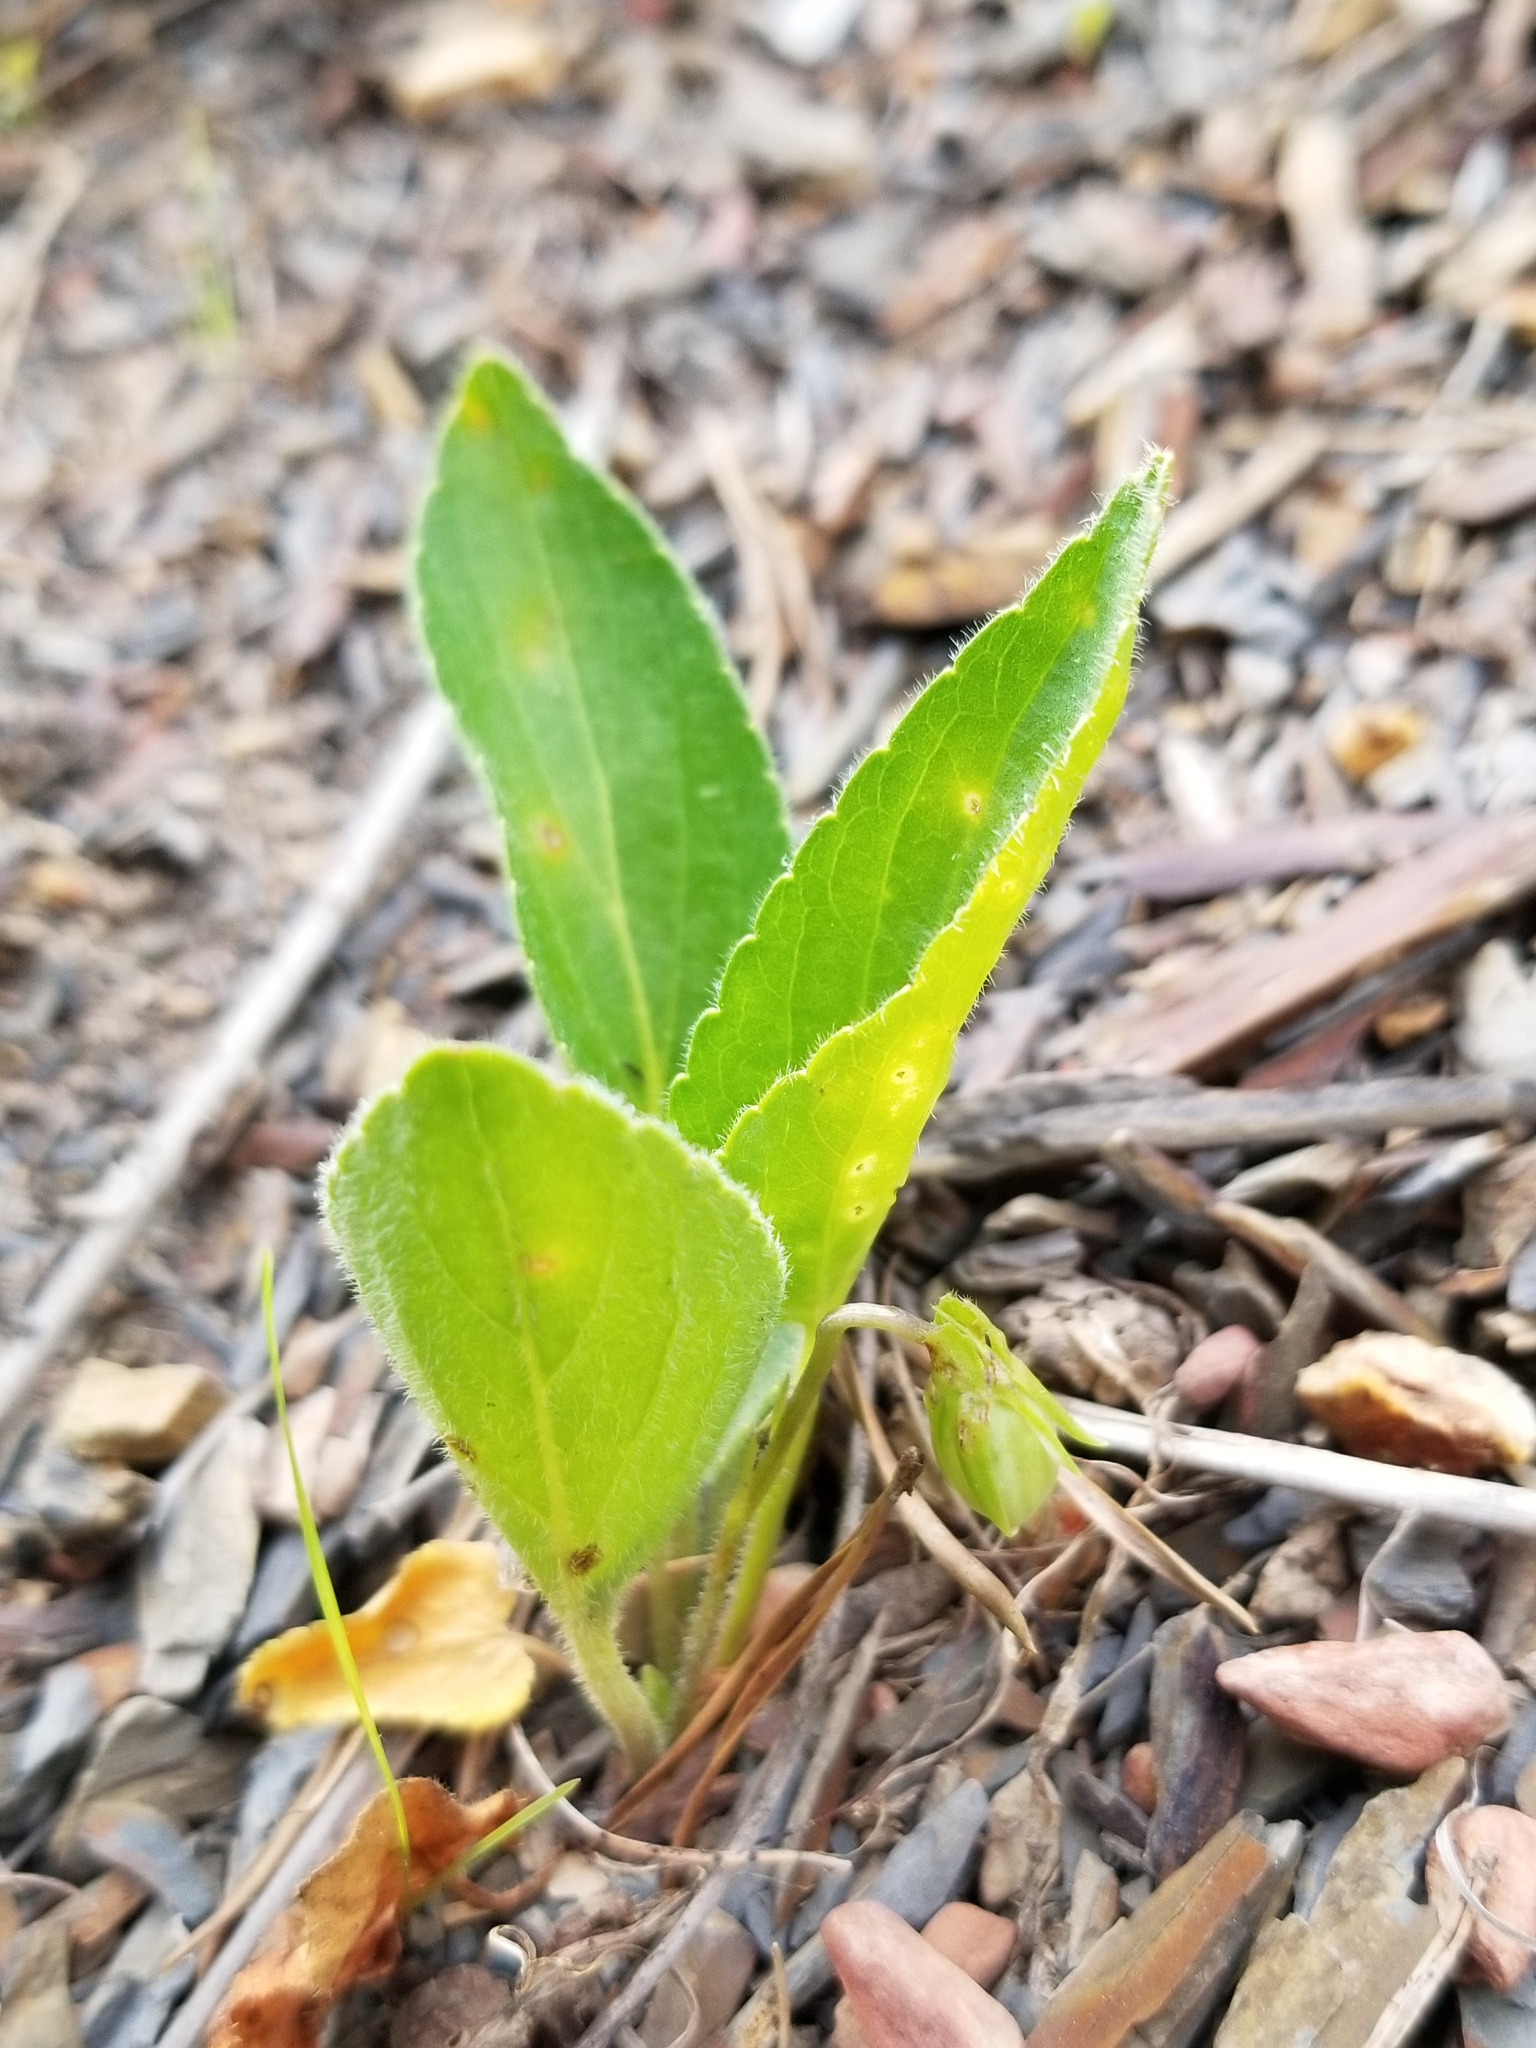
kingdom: Plantae
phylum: Tracheophyta
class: Magnoliopsida
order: Malpighiales
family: Violaceae
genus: Viola
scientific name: Viola fimbriatula
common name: Sand violet
